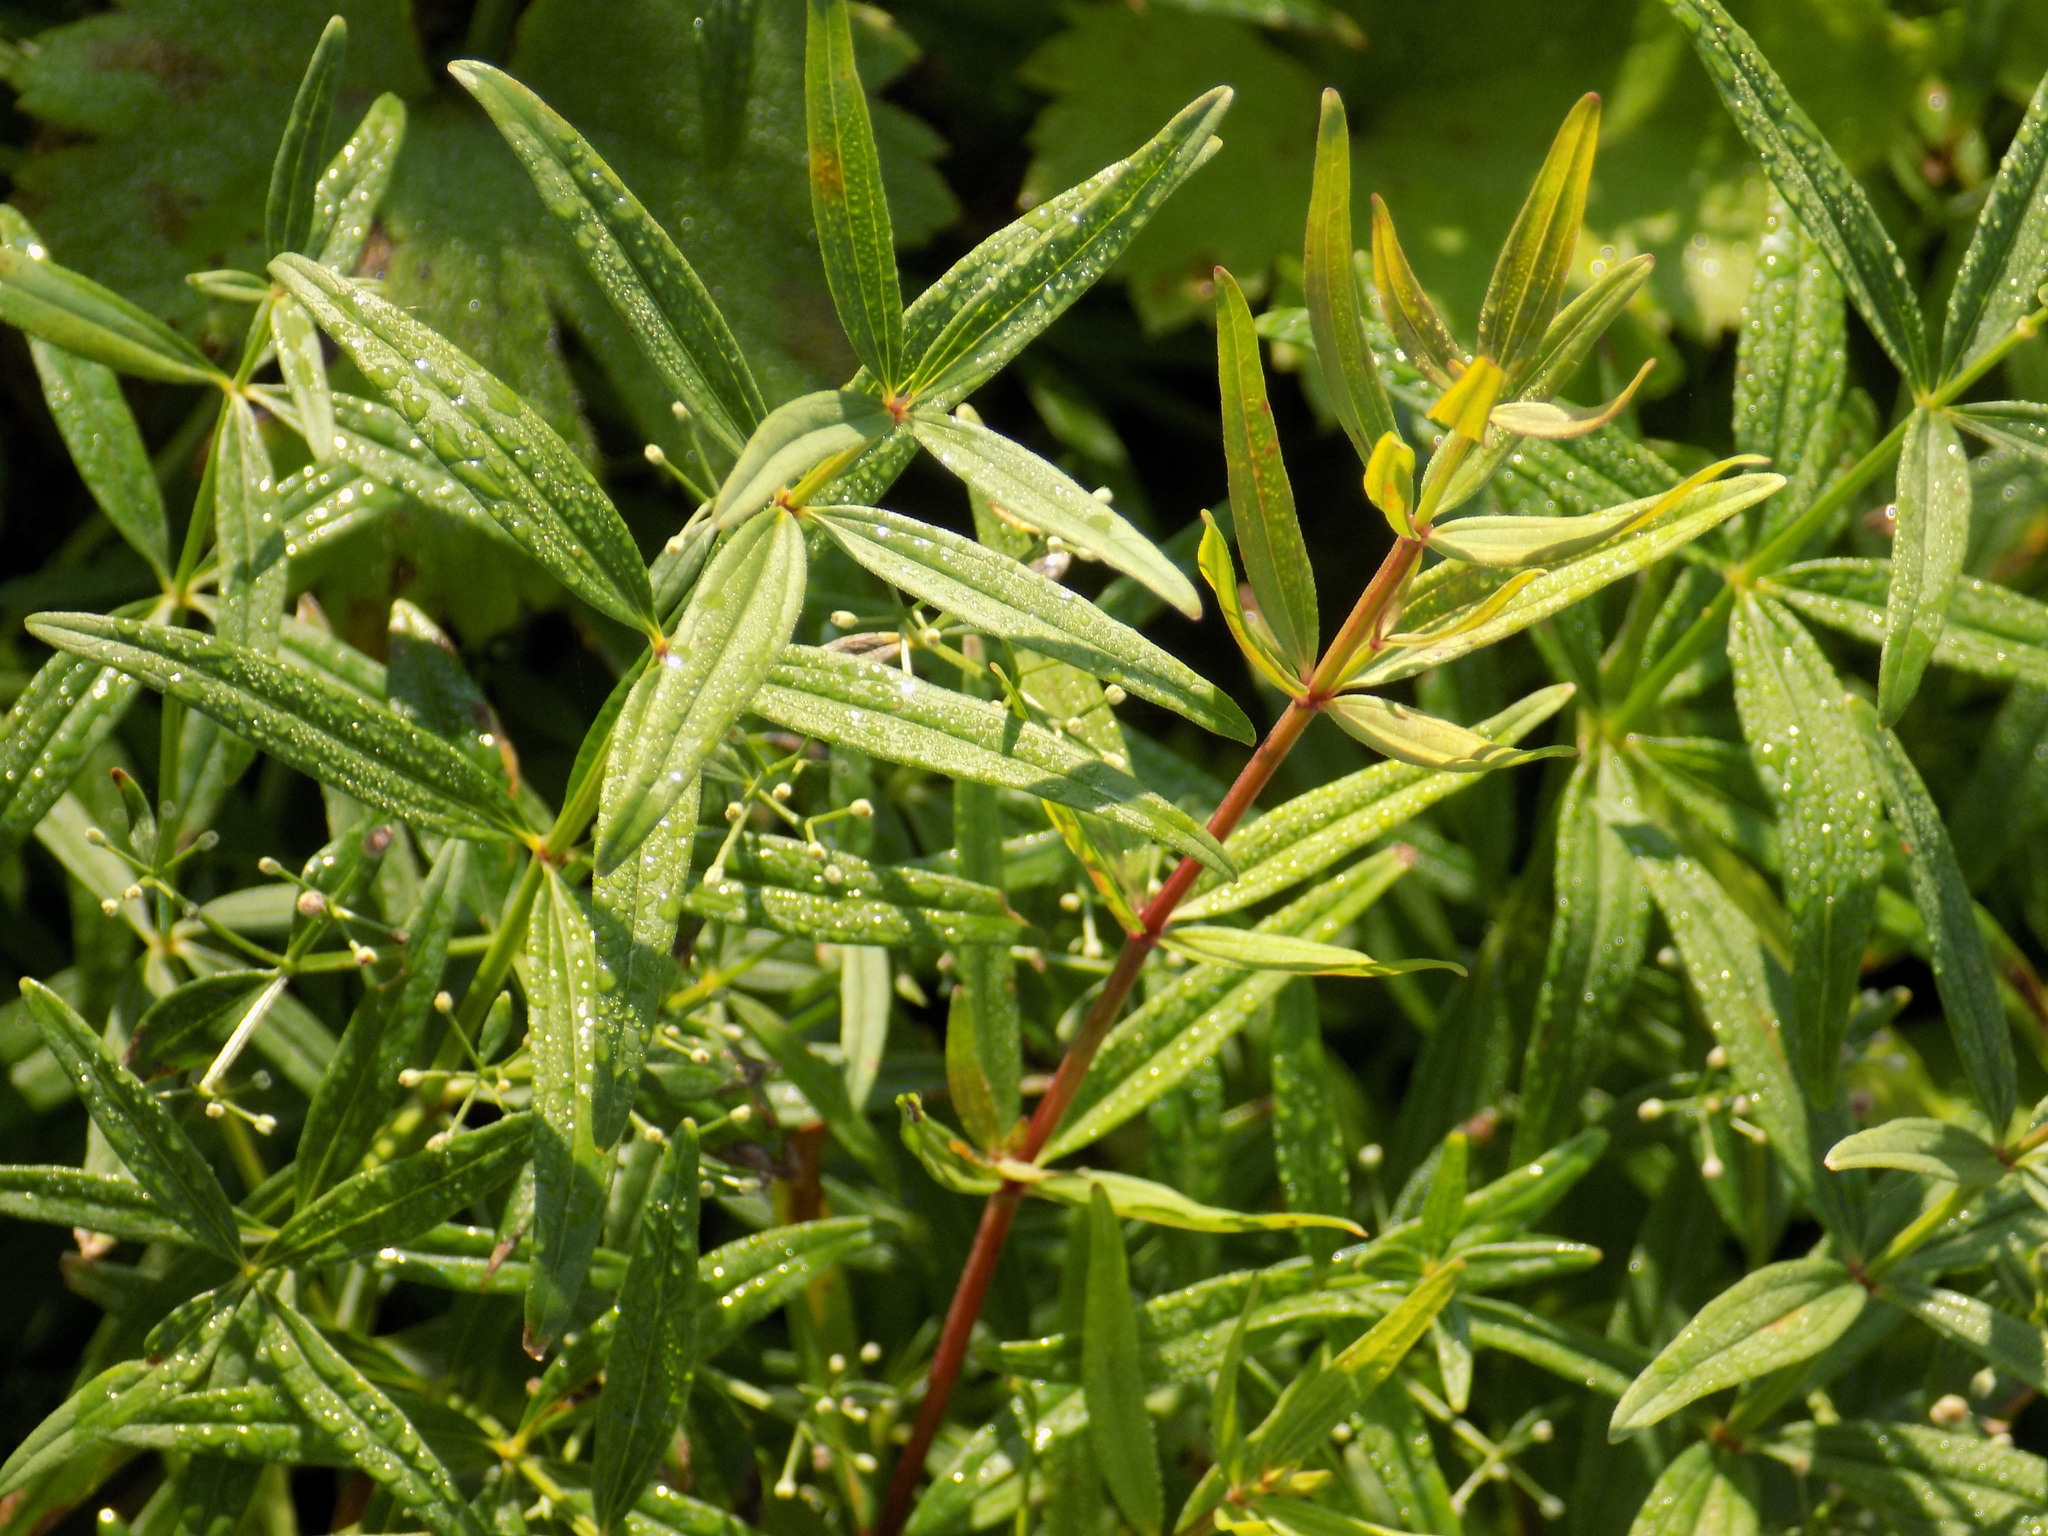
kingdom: Plantae
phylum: Tracheophyta
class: Magnoliopsida
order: Gentianales
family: Rubiaceae
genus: Galium
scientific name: Galium boreale
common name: Northern bedstraw
